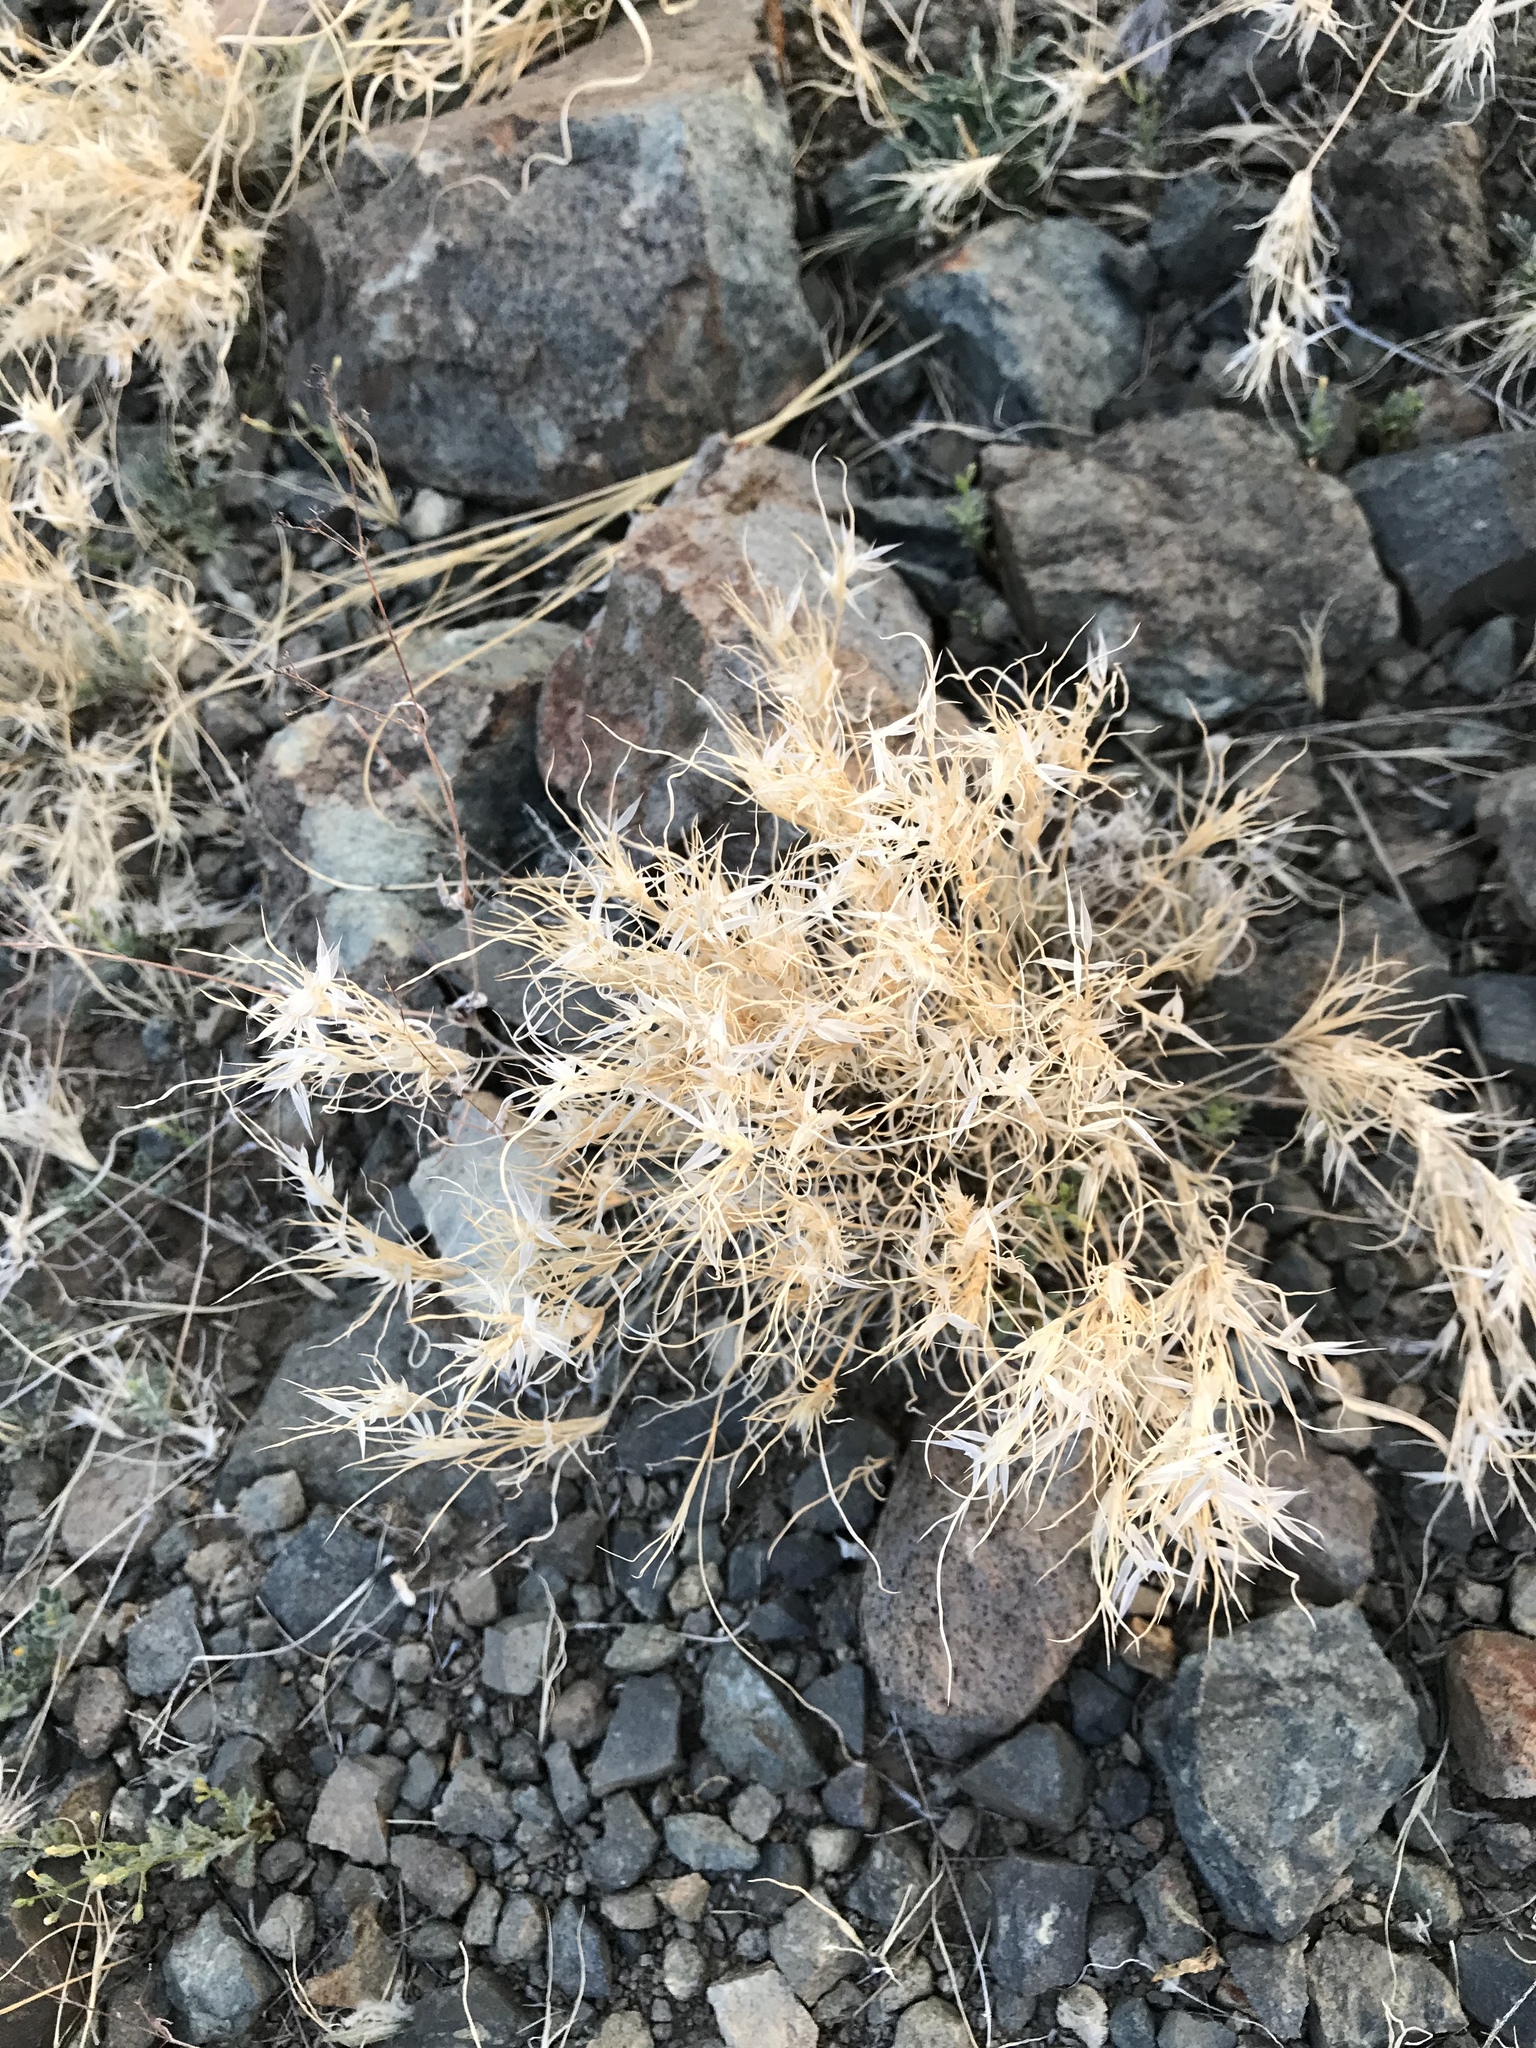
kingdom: Plantae
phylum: Tracheophyta
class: Liliopsida
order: Poales
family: Poaceae
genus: Dasyochloa
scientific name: Dasyochloa pulchella
